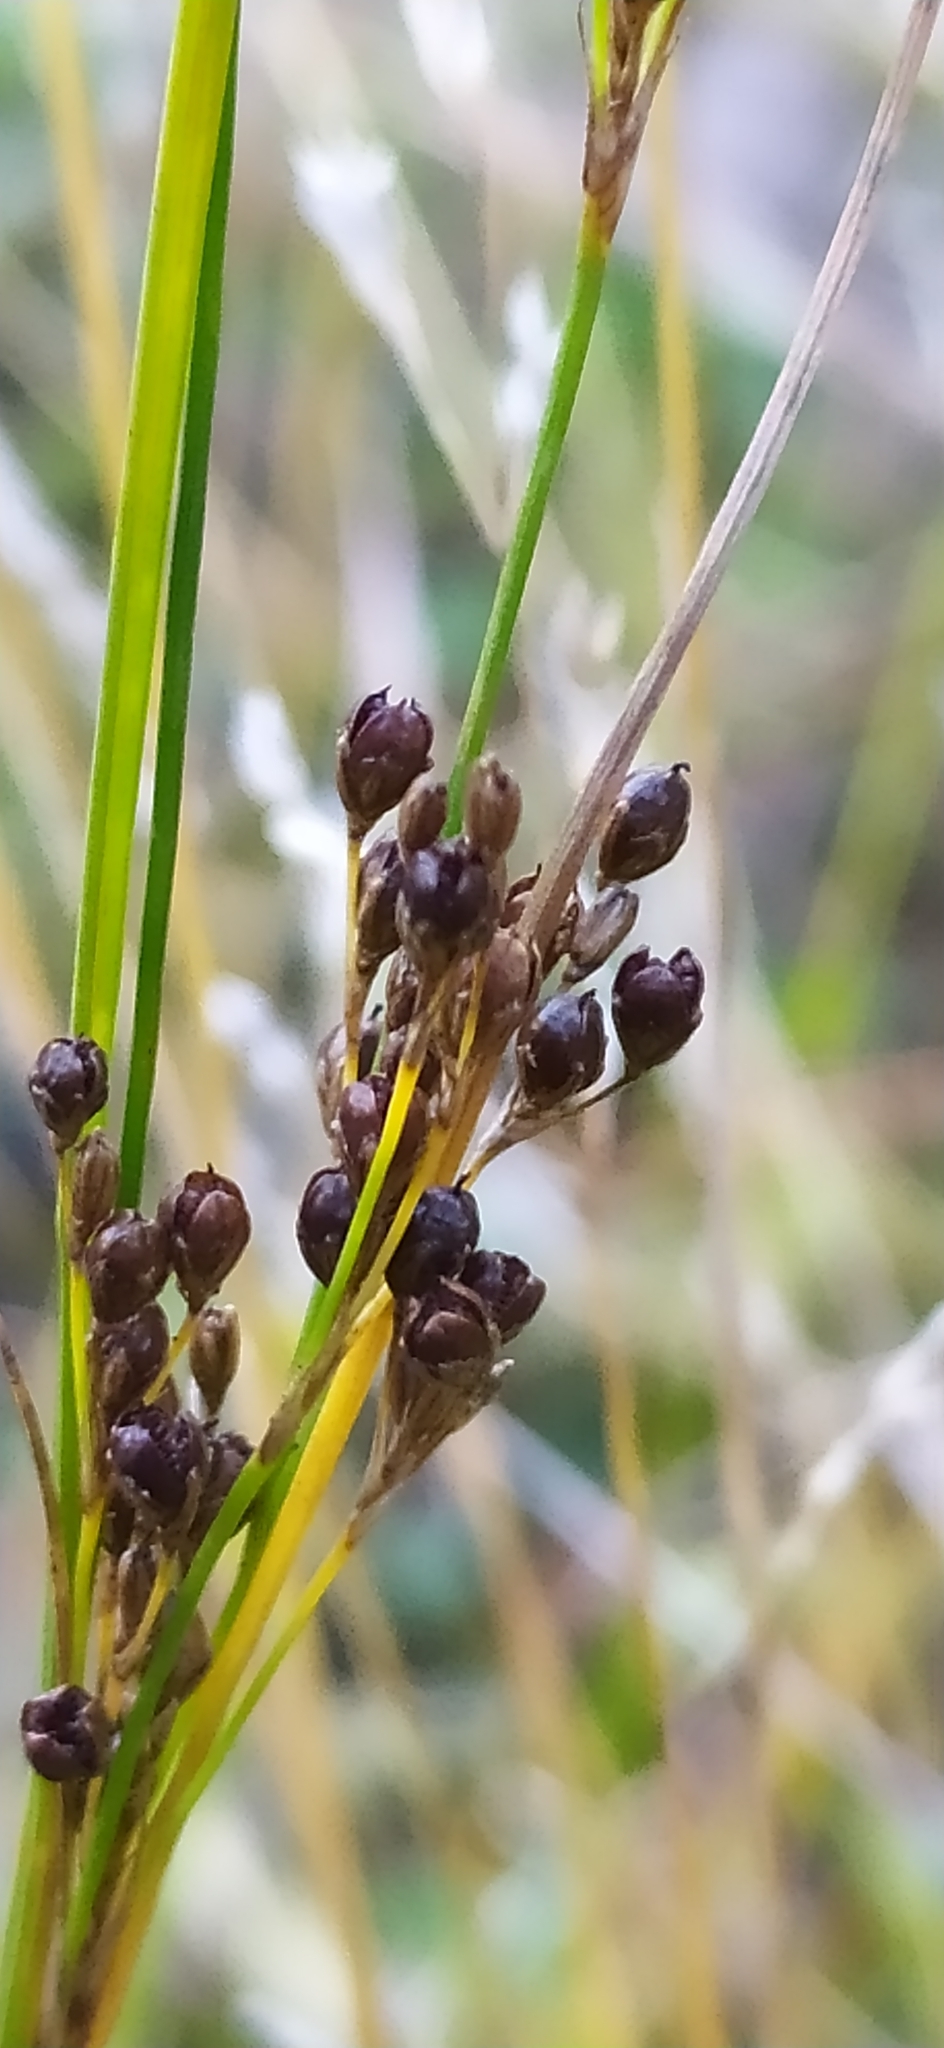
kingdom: Plantae
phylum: Tracheophyta
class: Liliopsida
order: Poales
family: Juncaceae
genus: Juncus
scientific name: Juncus compressus
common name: Round-fruited rush
